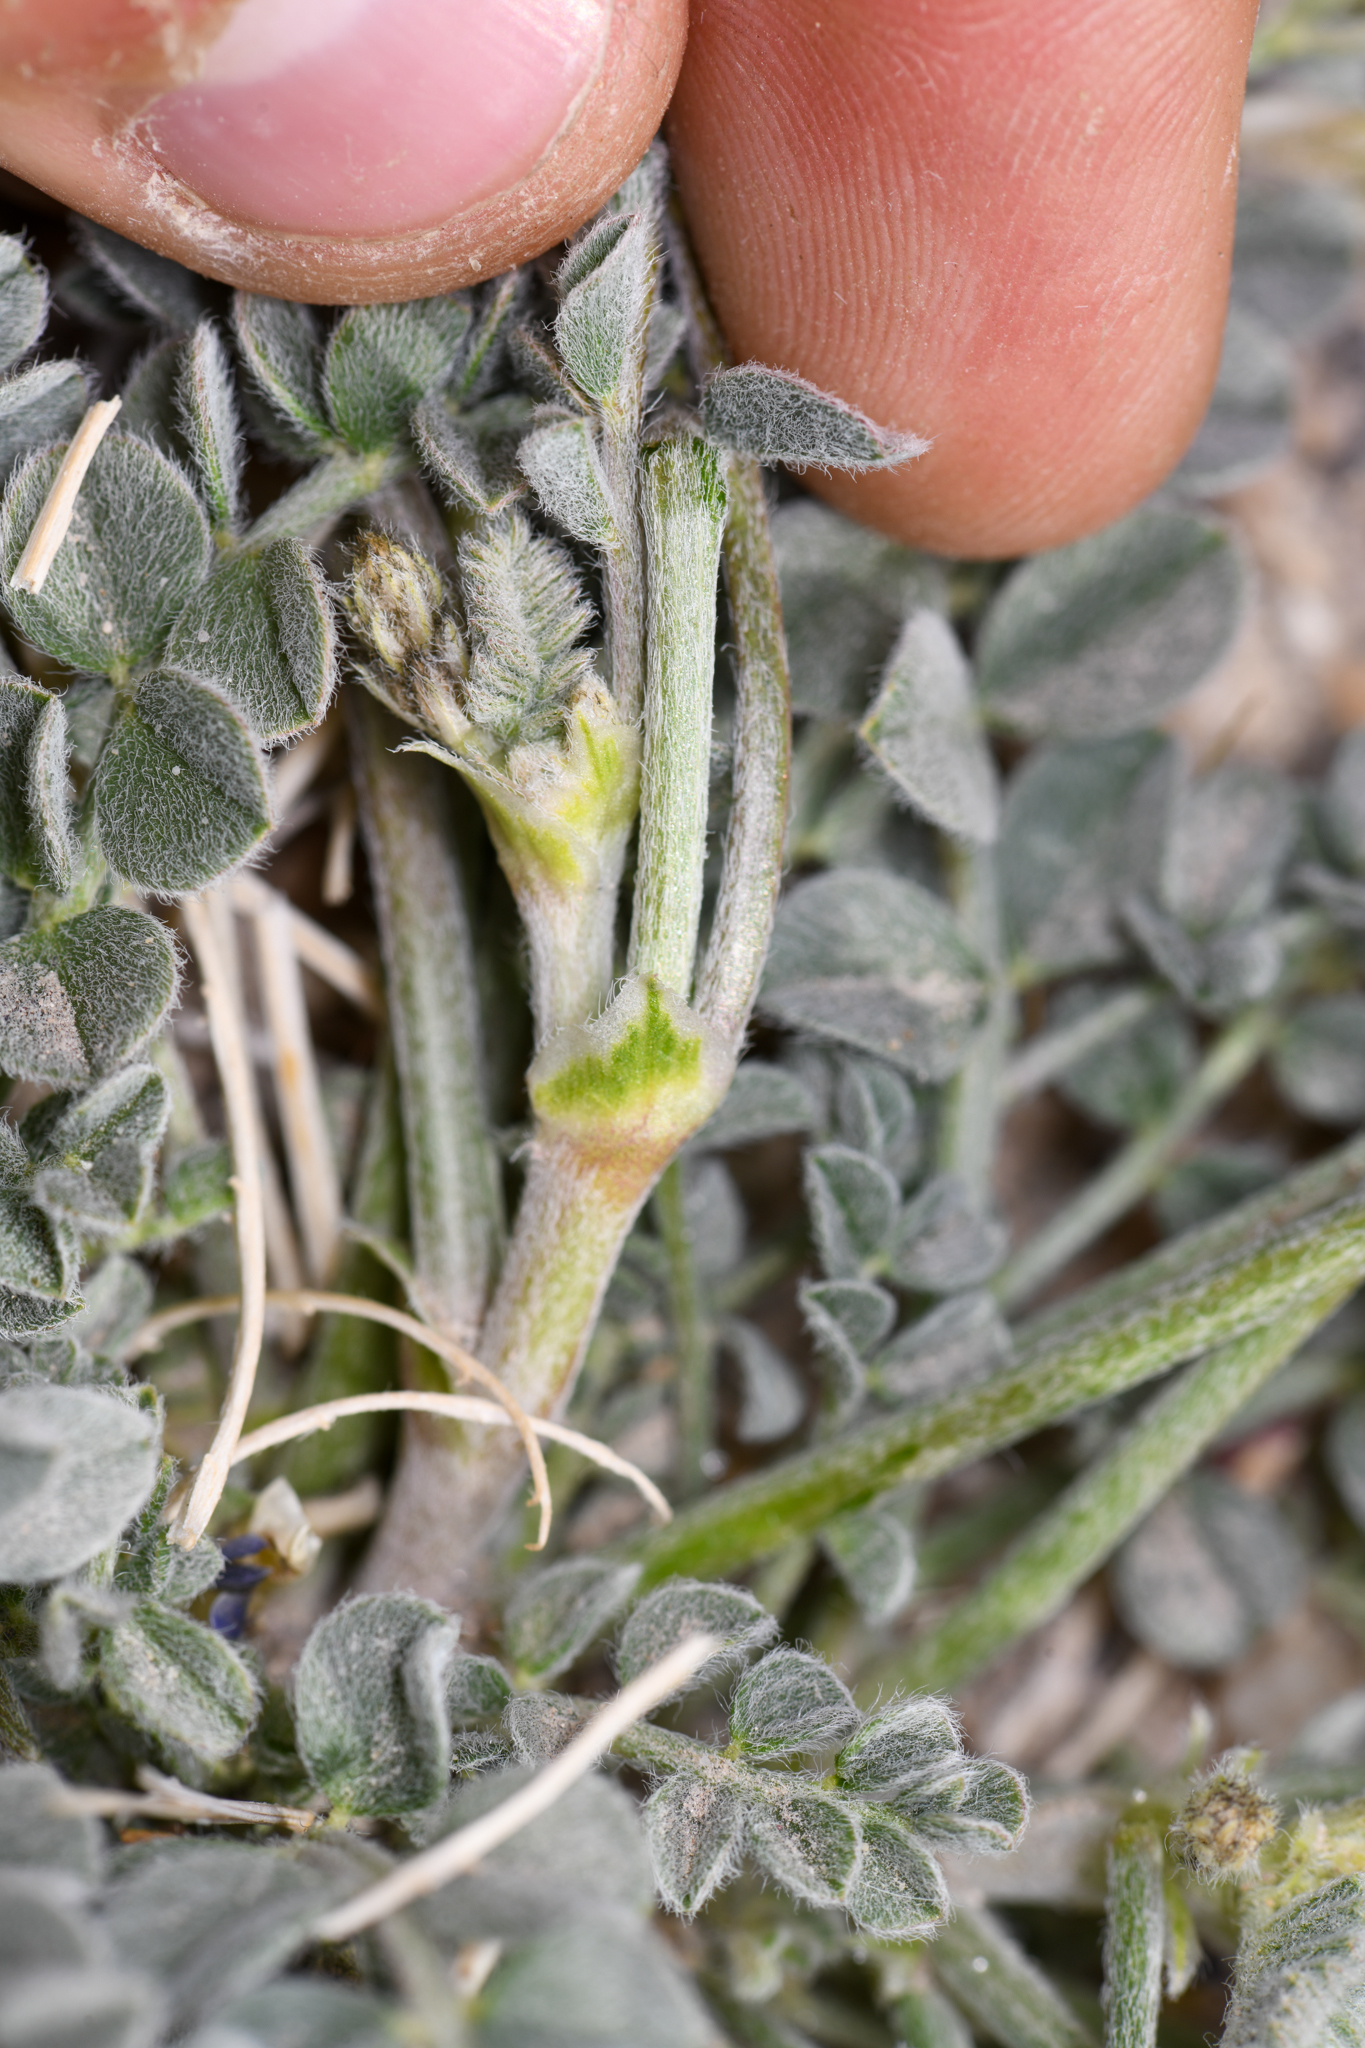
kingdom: Plantae
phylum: Tracheophyta
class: Magnoliopsida
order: Fabales
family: Fabaceae
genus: Astragalus
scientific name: Astragalus layneae
